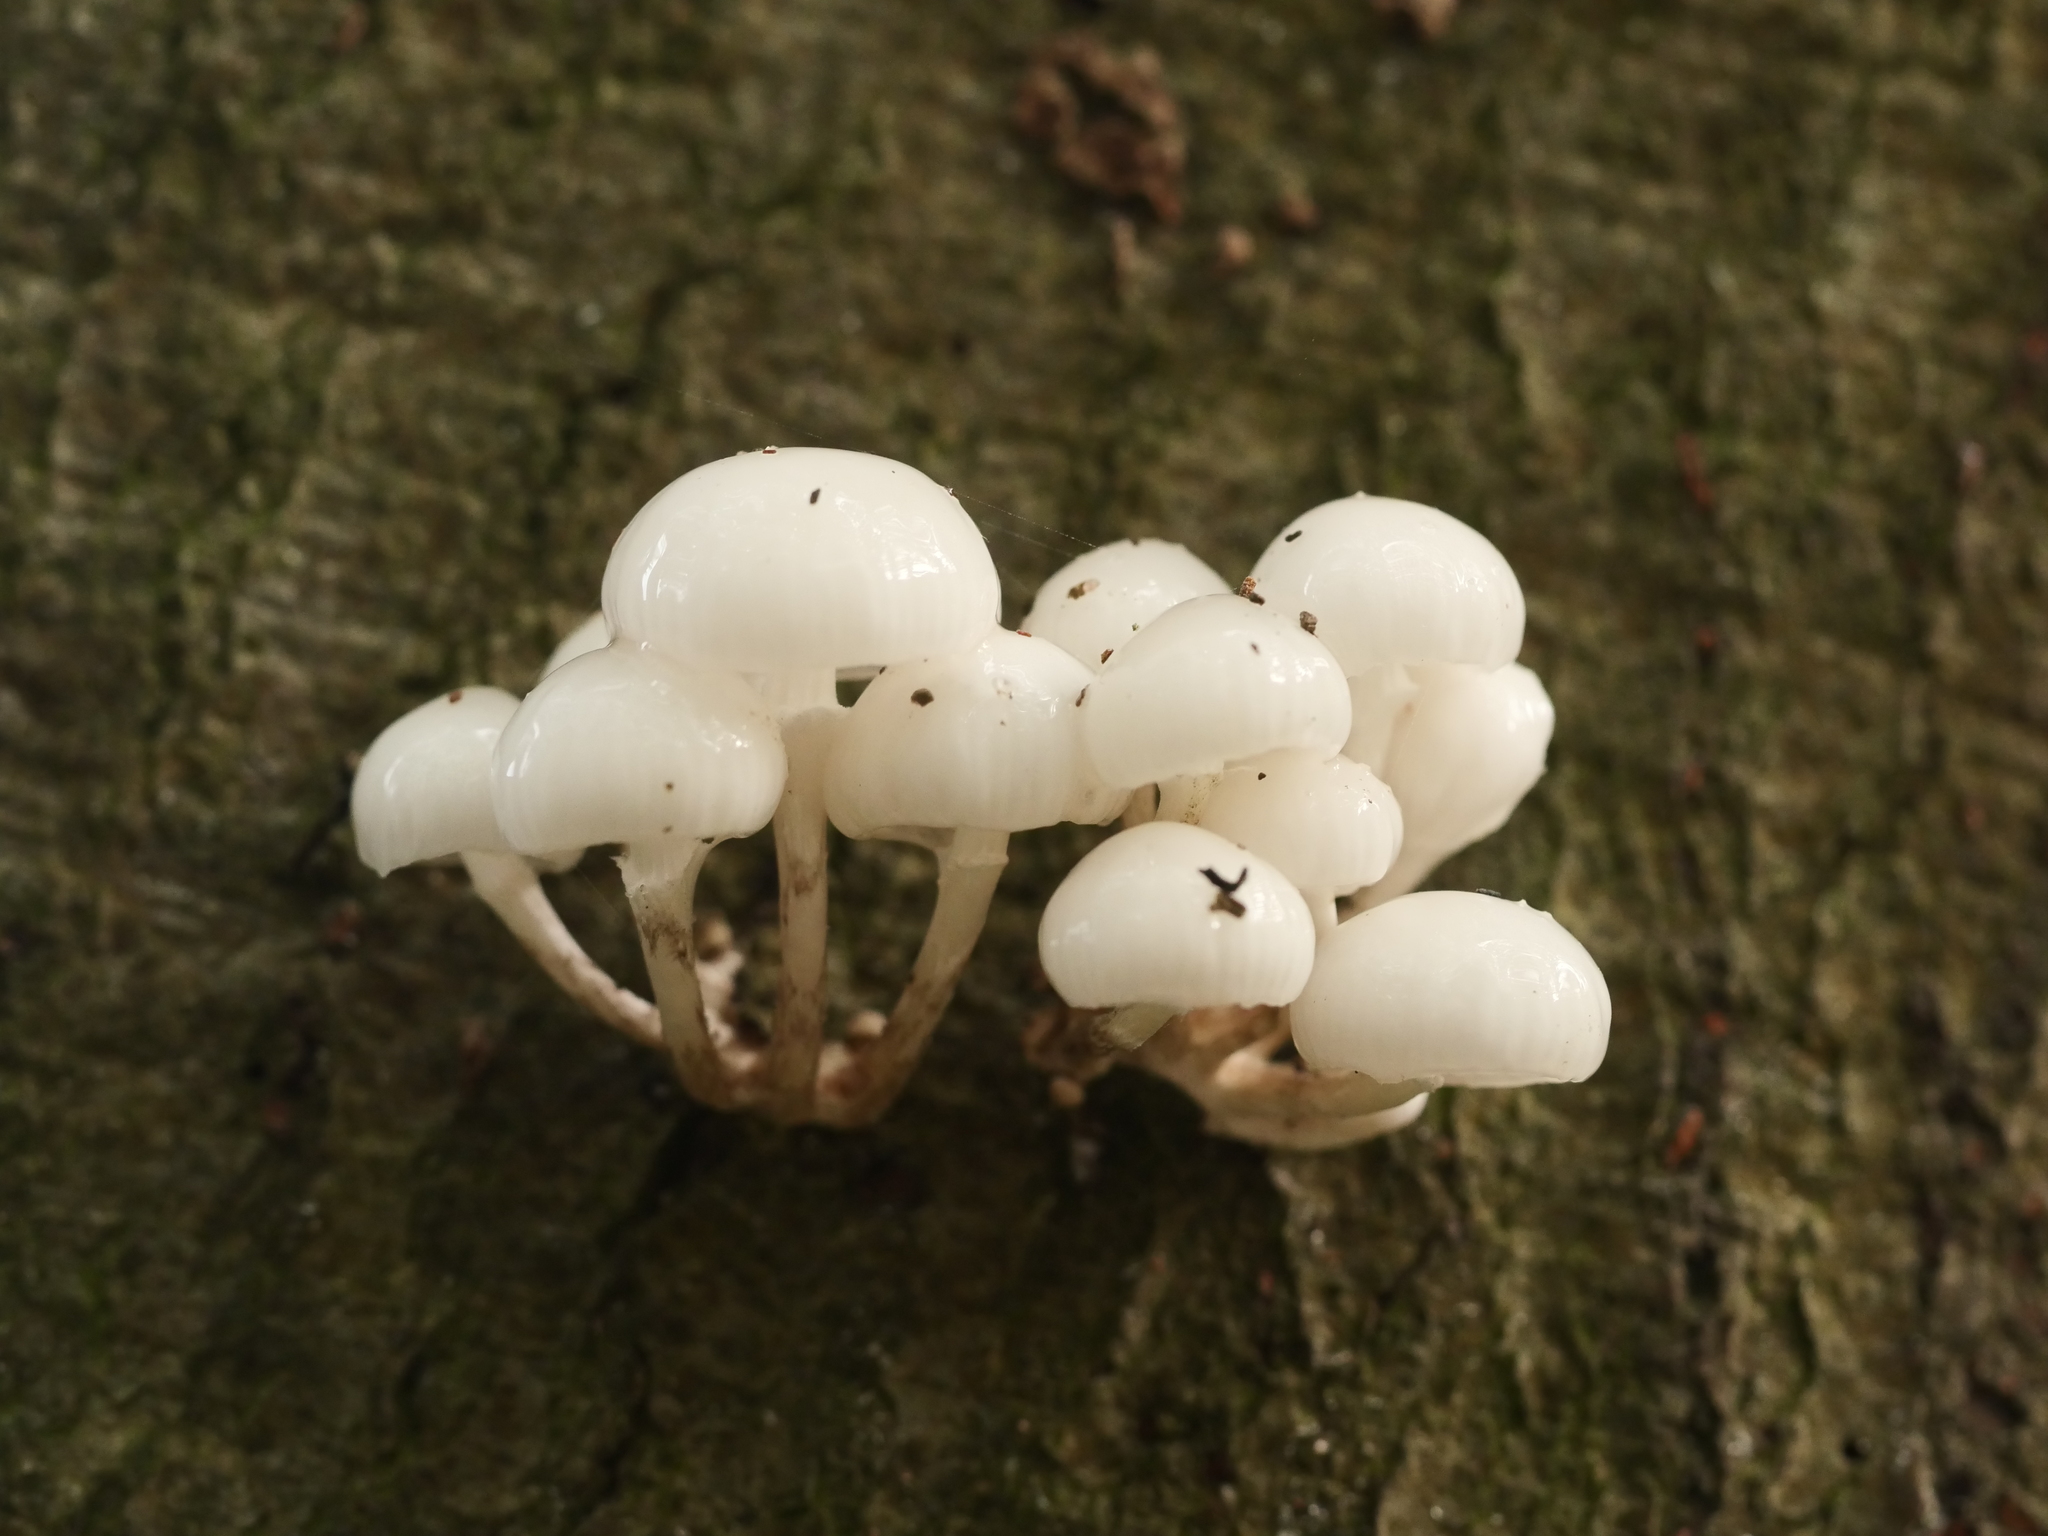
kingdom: Fungi
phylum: Basidiomycota
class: Agaricomycetes
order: Agaricales
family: Physalacriaceae
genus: Mucidula
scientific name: Mucidula mucida
